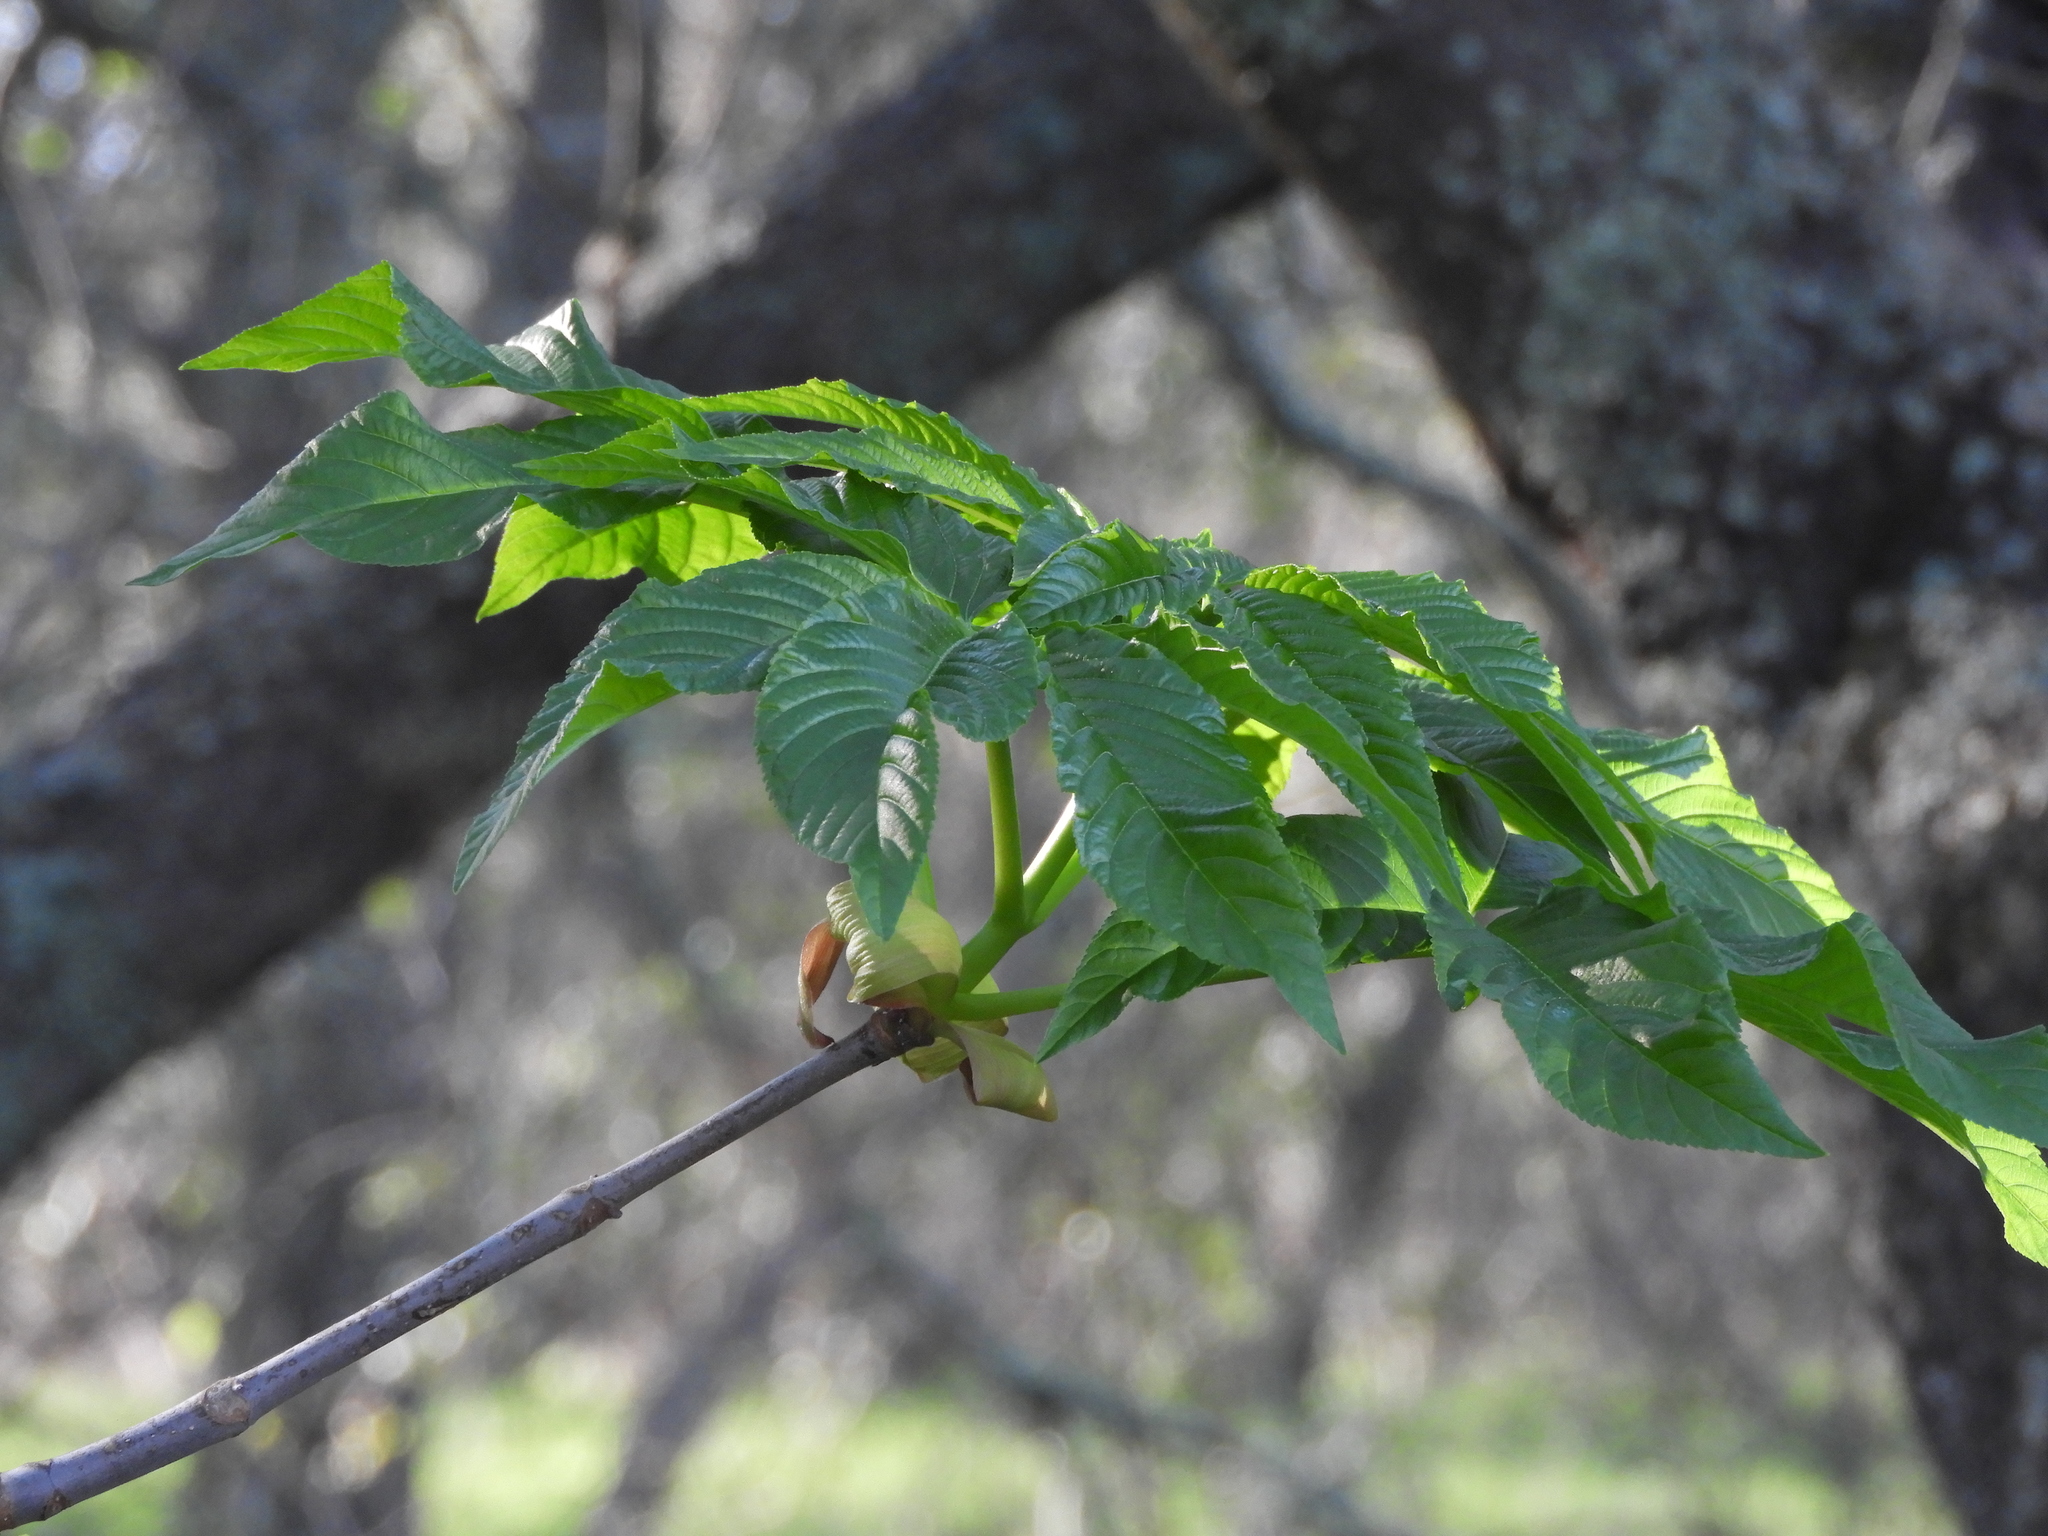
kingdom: Plantae
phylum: Tracheophyta
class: Magnoliopsida
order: Sapindales
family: Sapindaceae
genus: Aesculus
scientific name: Aesculus californica
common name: California buckeye
